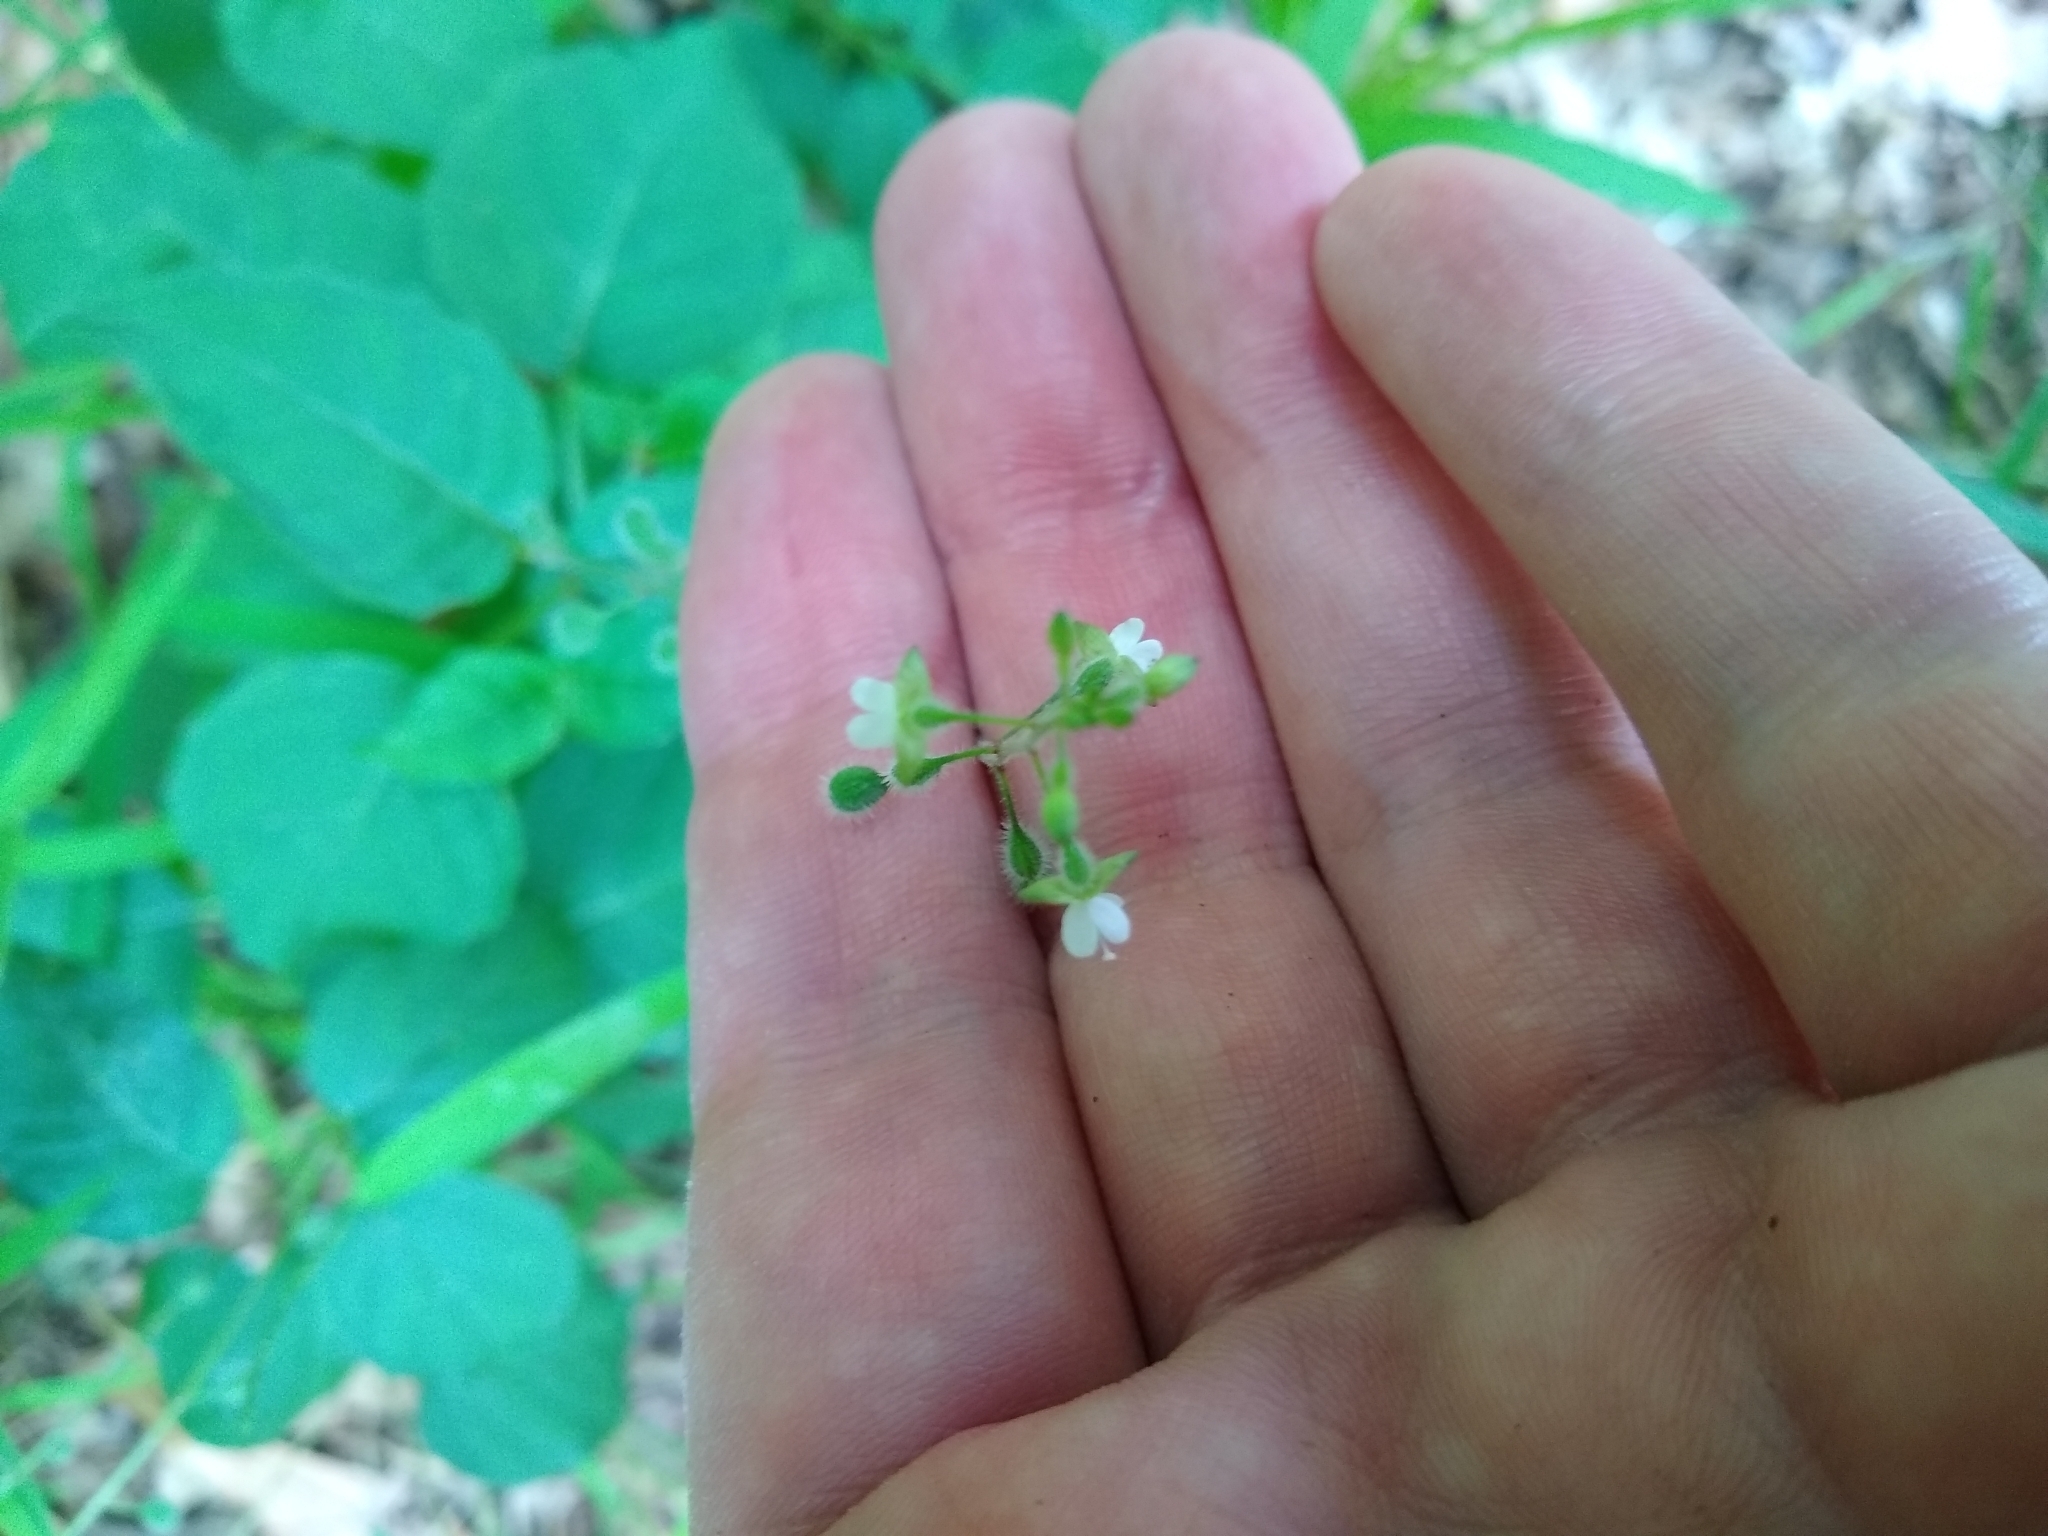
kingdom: Plantae
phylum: Tracheophyta
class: Magnoliopsida
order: Myrtales
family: Onagraceae
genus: Circaea
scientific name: Circaea canadensis
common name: Broad-leaved enchanter's nightshade
